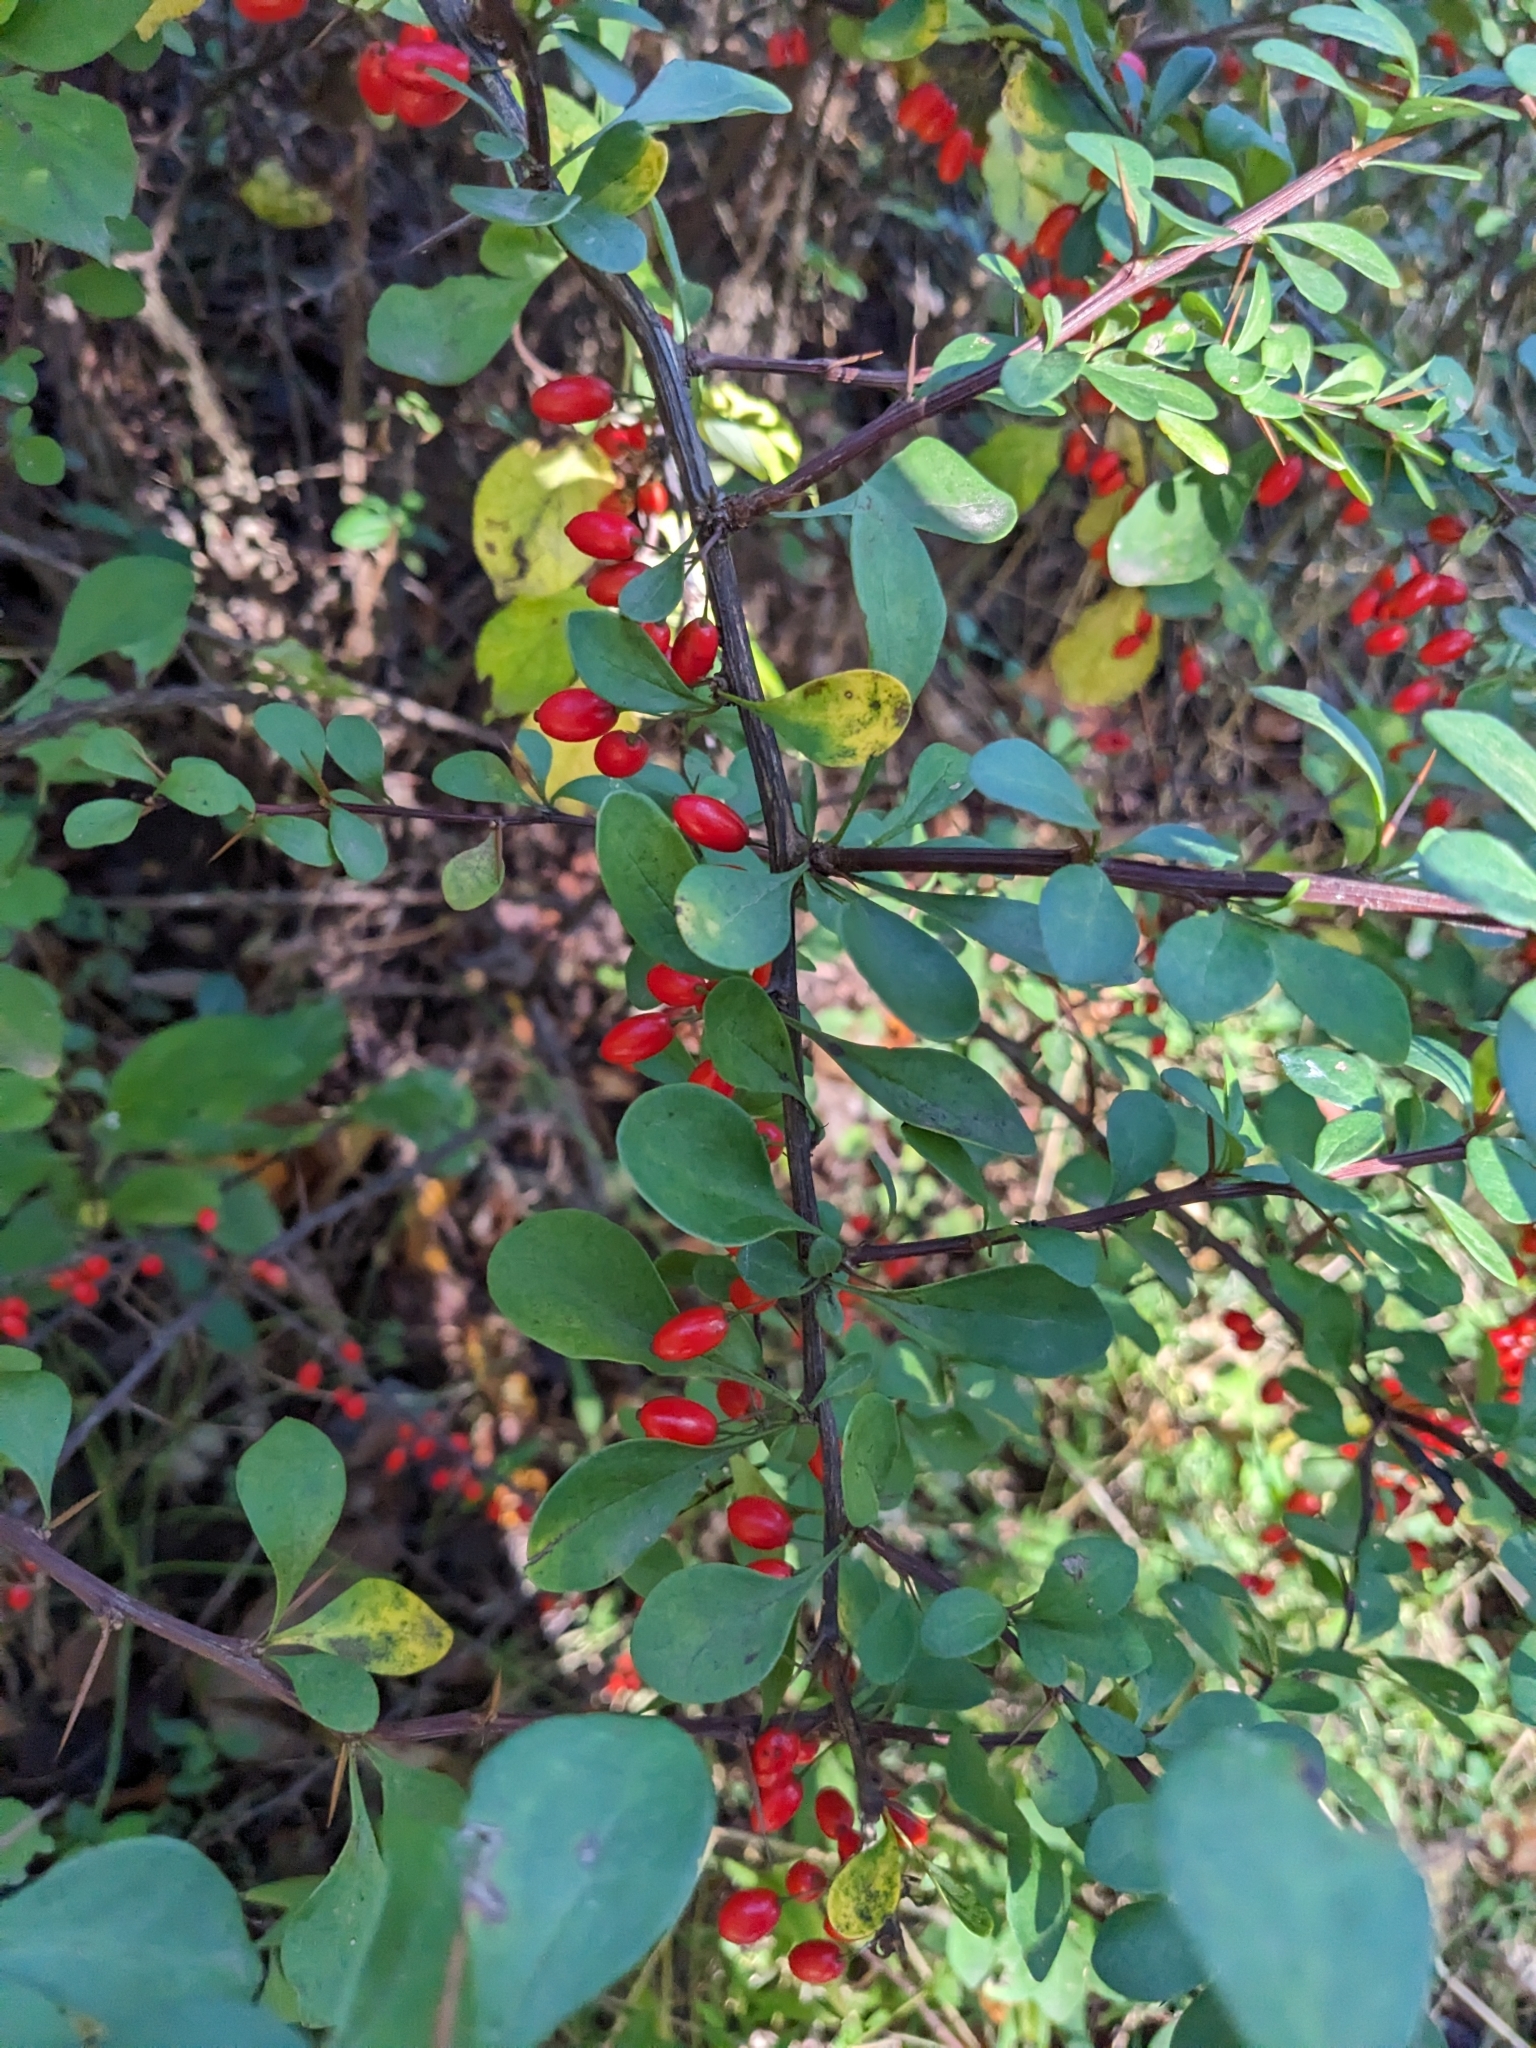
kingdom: Plantae
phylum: Tracheophyta
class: Magnoliopsida
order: Ranunculales
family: Berberidaceae
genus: Berberis
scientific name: Berberis thunbergii
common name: Japanese barberry
